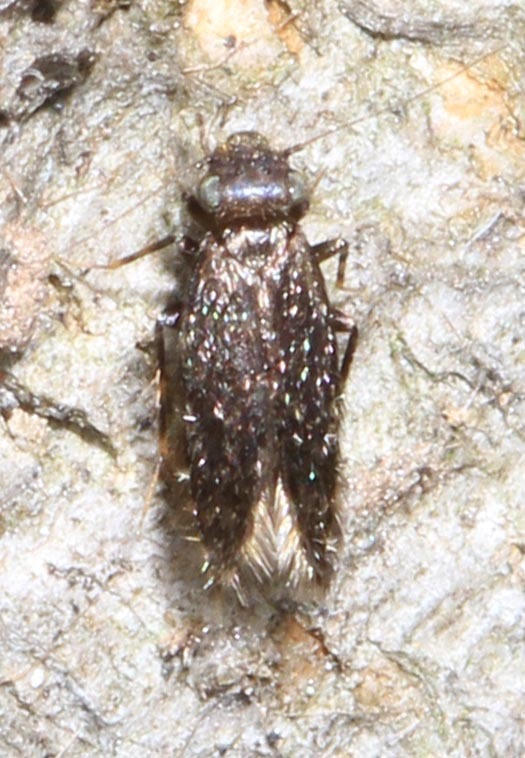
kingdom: Animalia
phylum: Arthropoda
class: Insecta
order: Psocodea
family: Lepidopsocidae
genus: Echmepteryx
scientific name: Echmepteryx hageni
